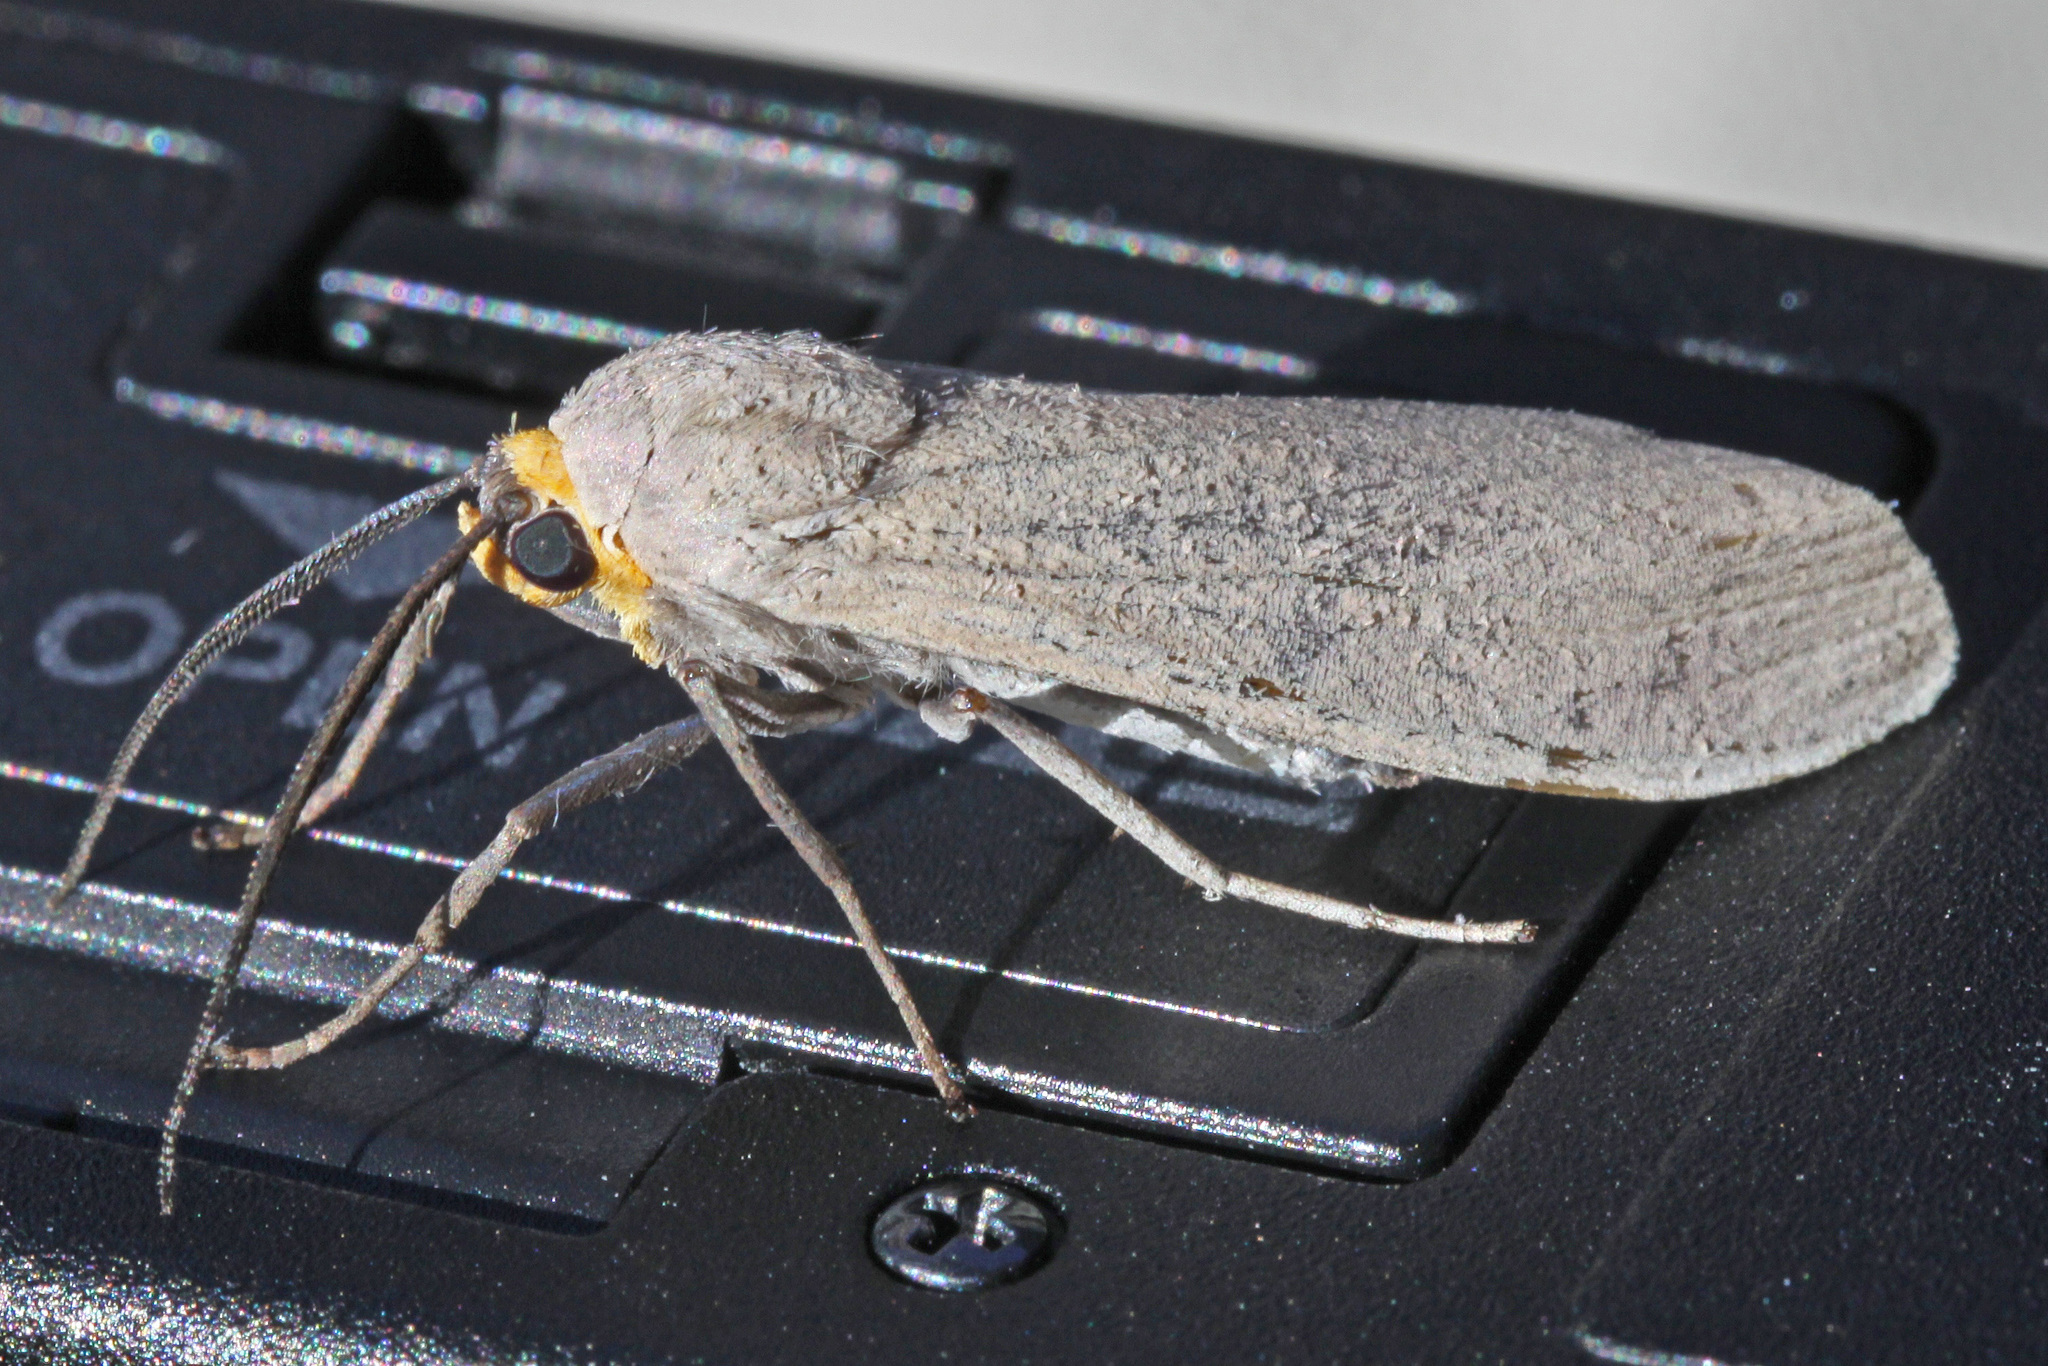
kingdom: Animalia
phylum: Arthropoda
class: Insecta
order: Lepidoptera
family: Erebidae
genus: Lymire
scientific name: Lymire edwardsii
